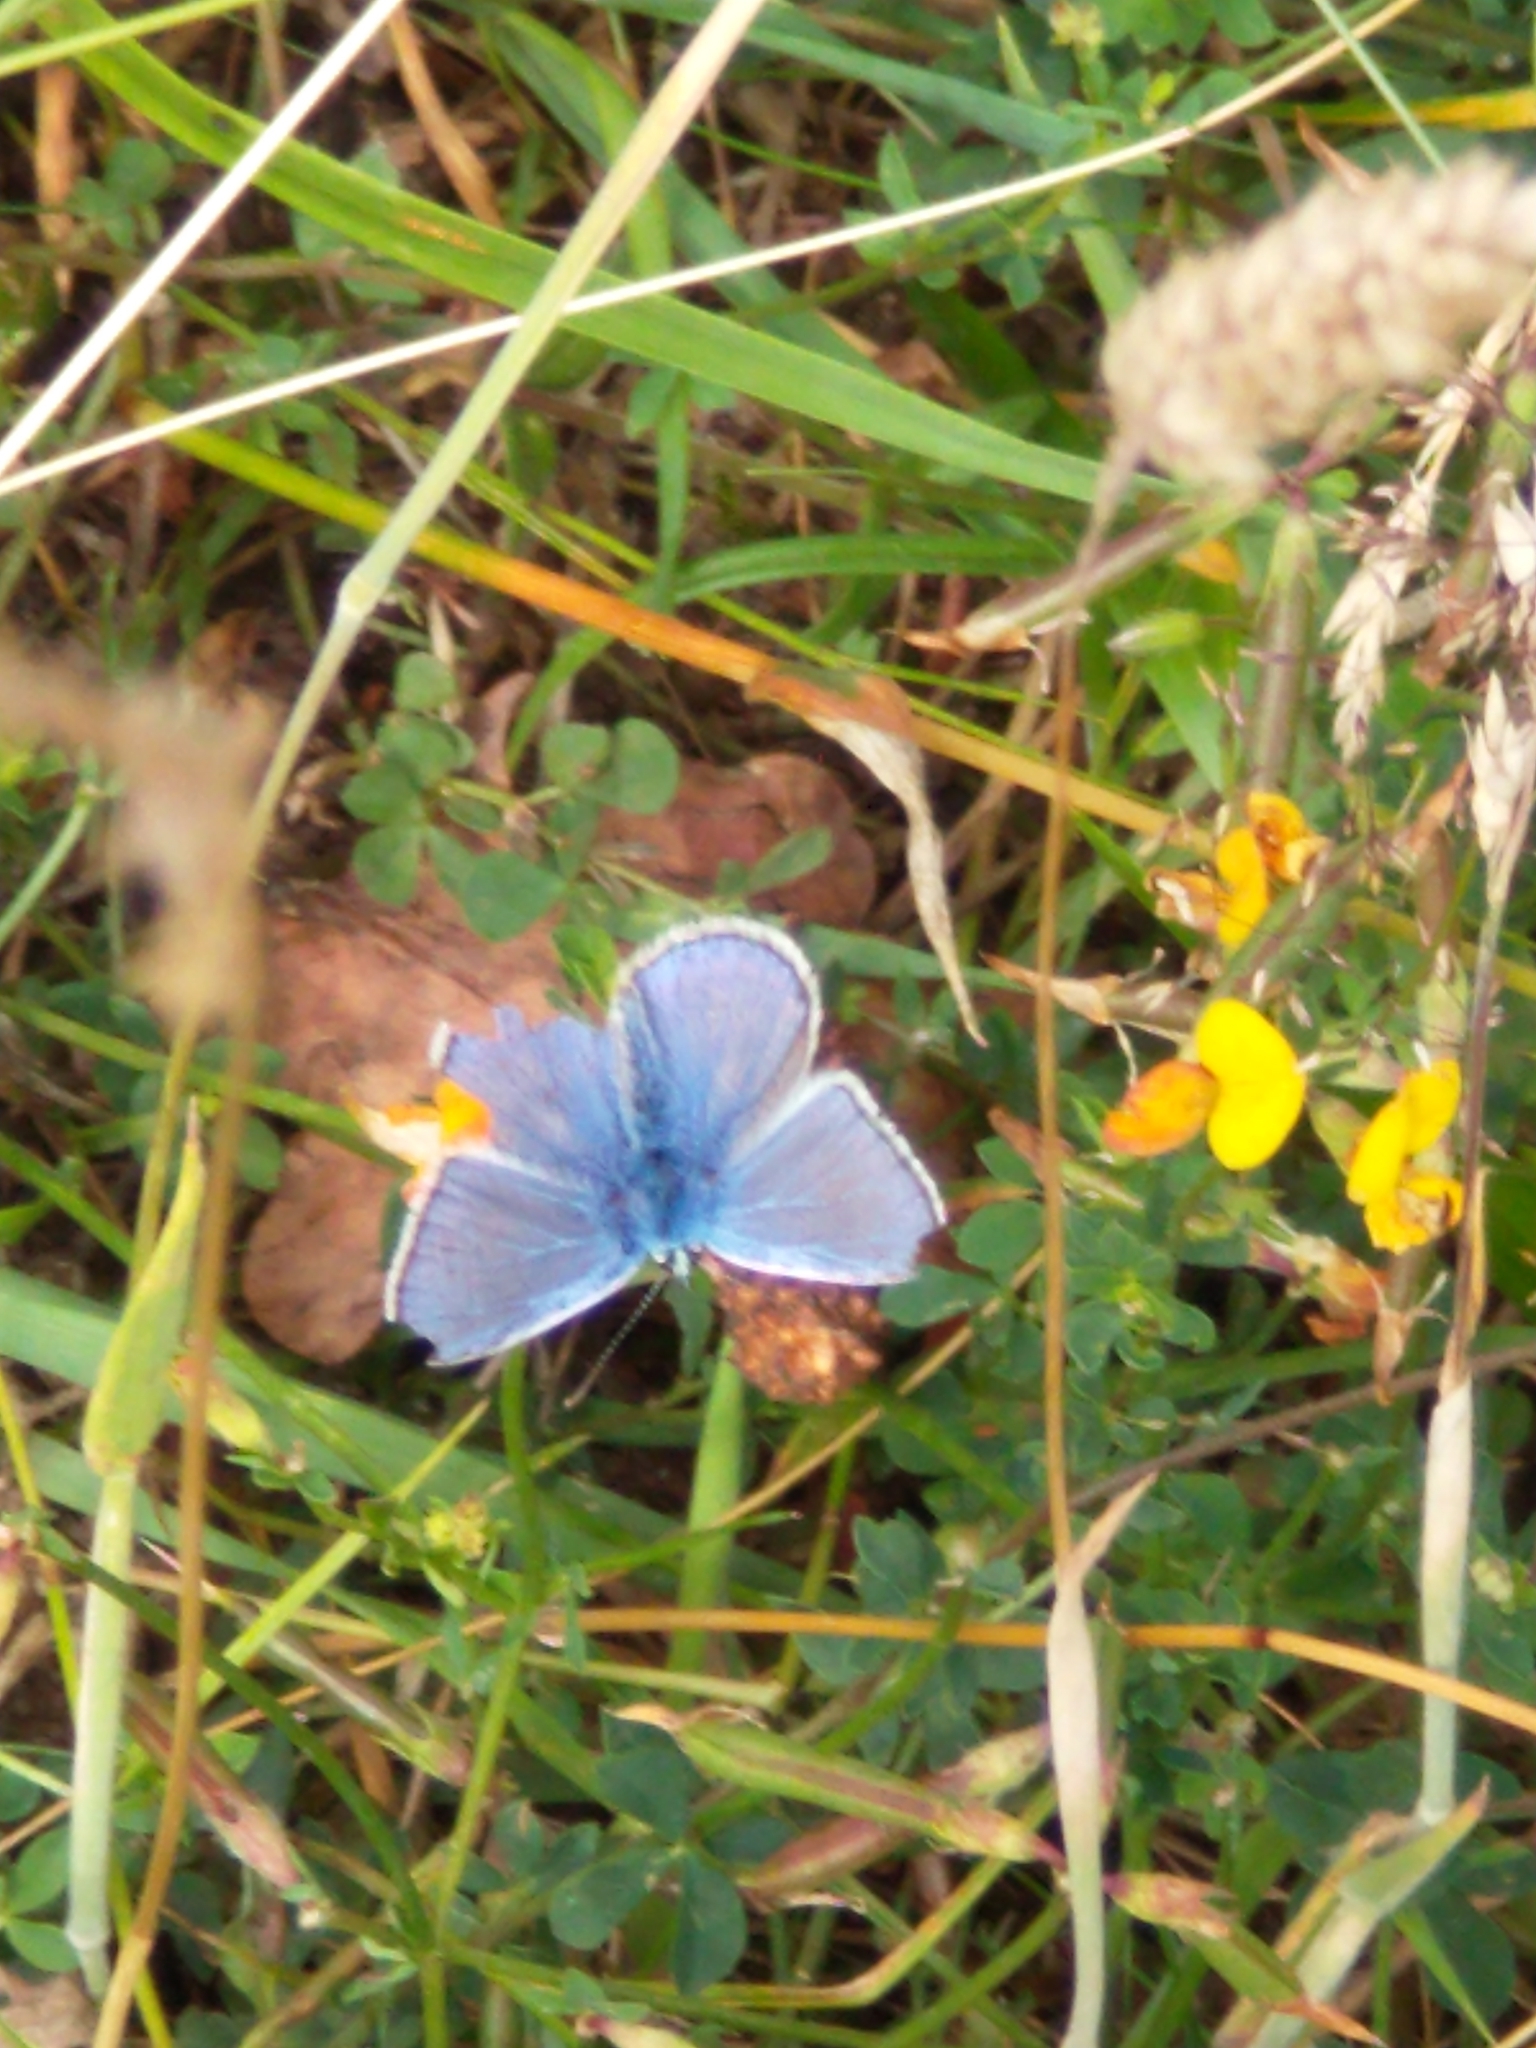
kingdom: Animalia
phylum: Arthropoda
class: Insecta
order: Lepidoptera
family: Lycaenidae
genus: Polyommatus
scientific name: Polyommatus icarus
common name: Common blue
